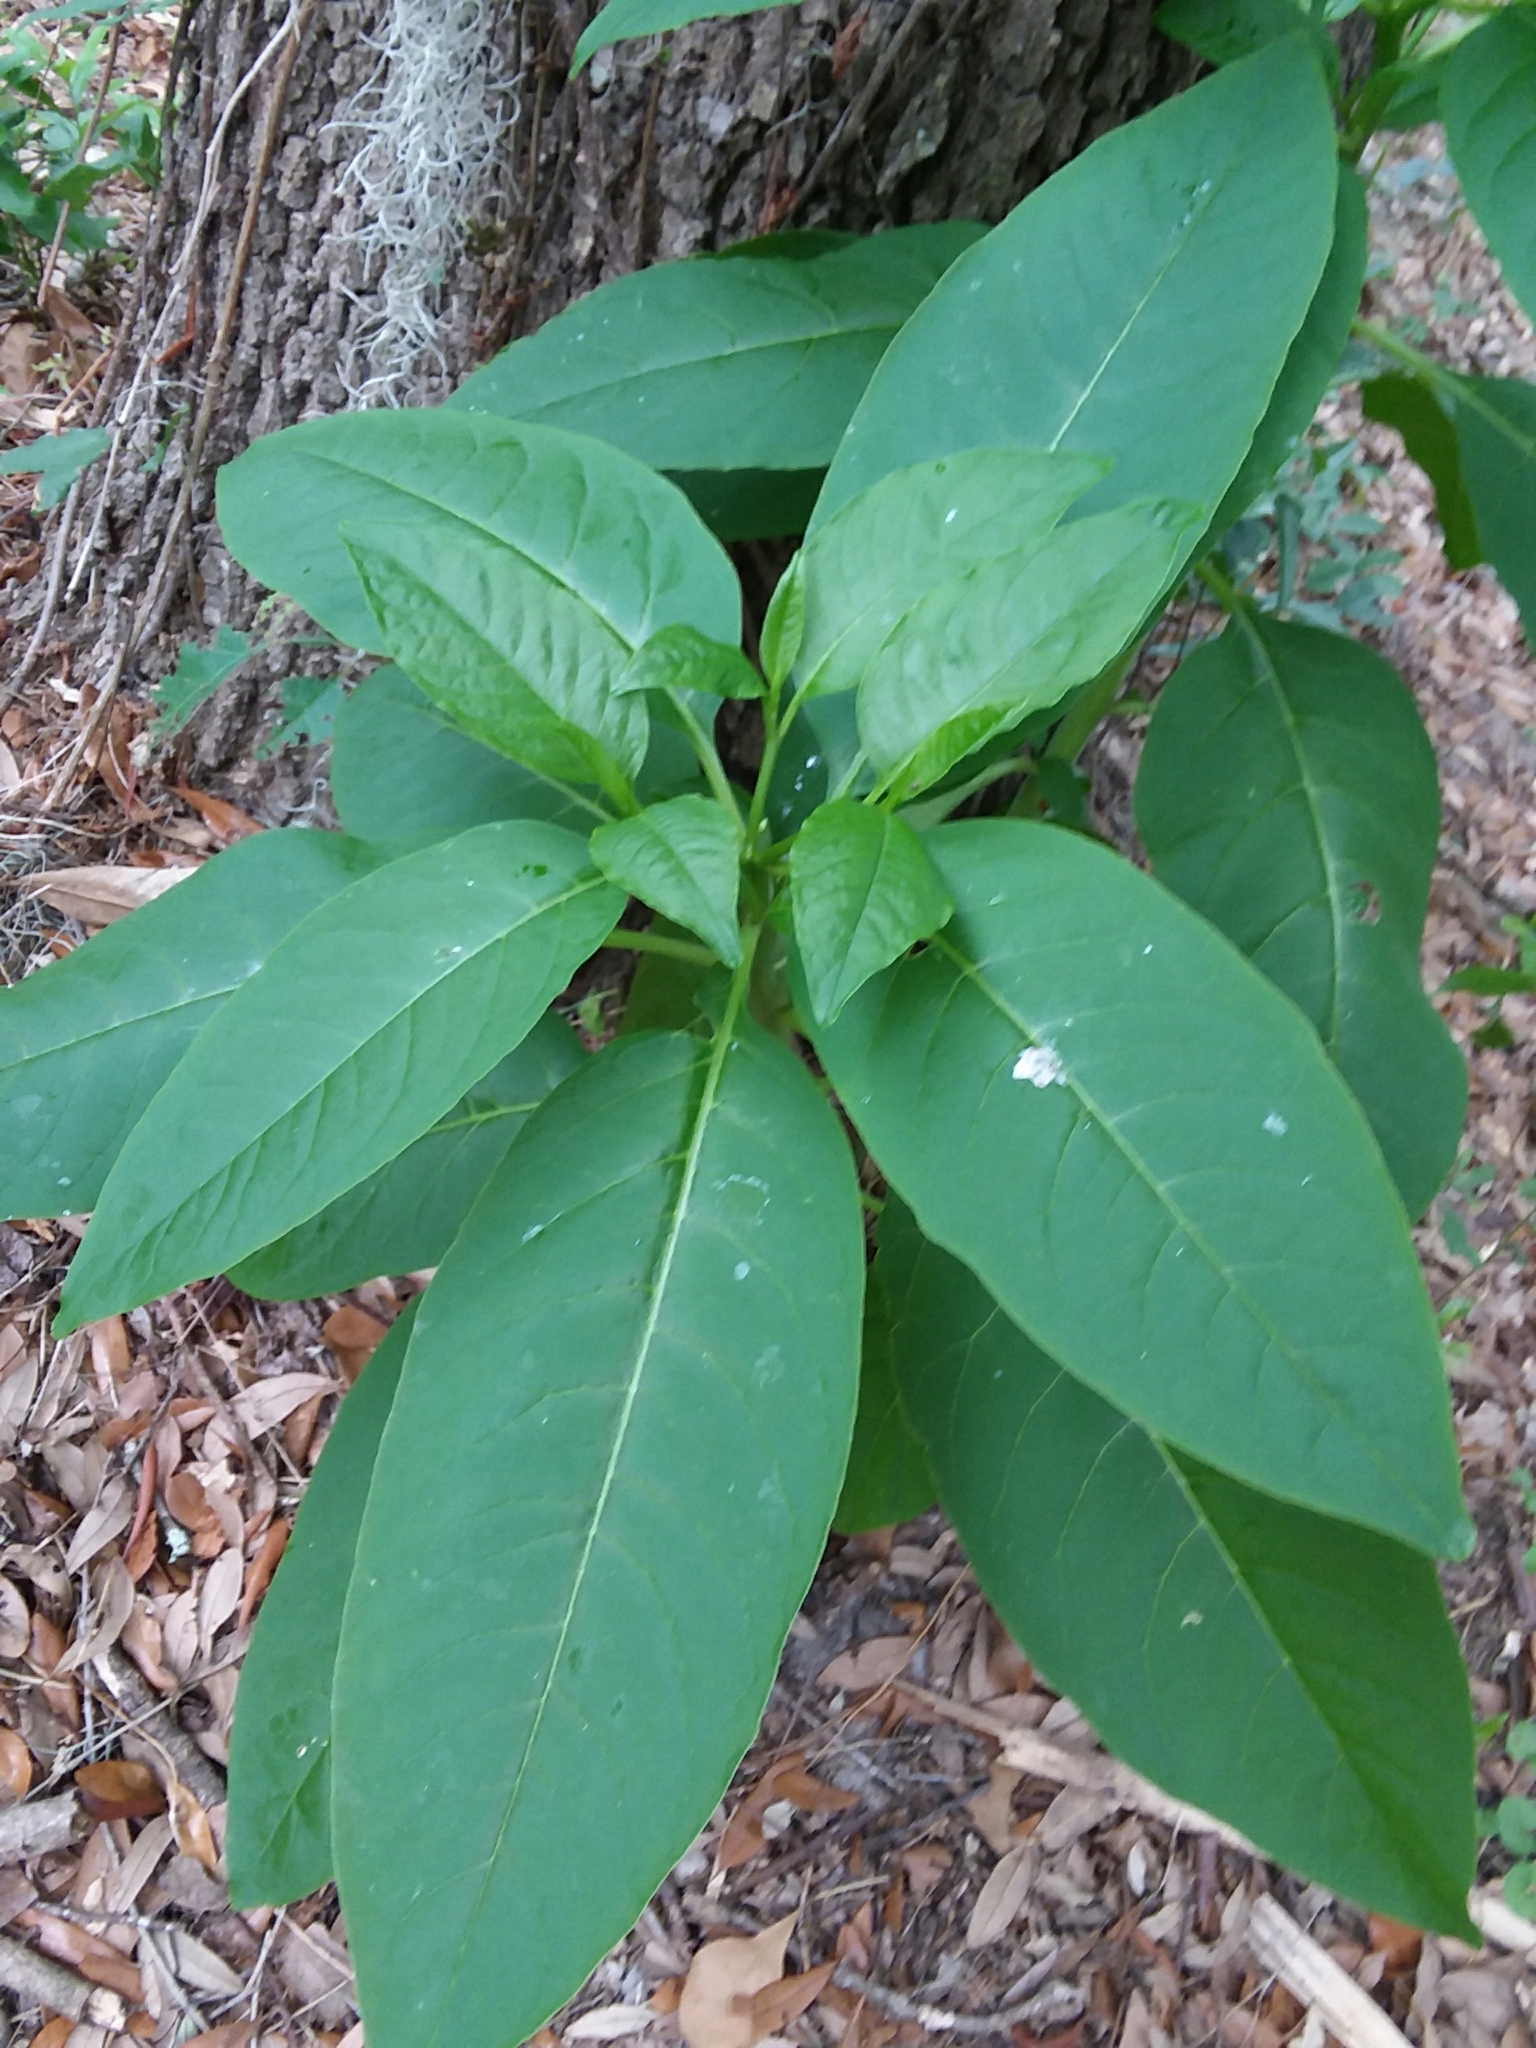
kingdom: Plantae
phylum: Tracheophyta
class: Magnoliopsida
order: Caryophyllales
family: Phytolaccaceae
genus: Phytolacca
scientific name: Phytolacca americana
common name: American pokeweed
